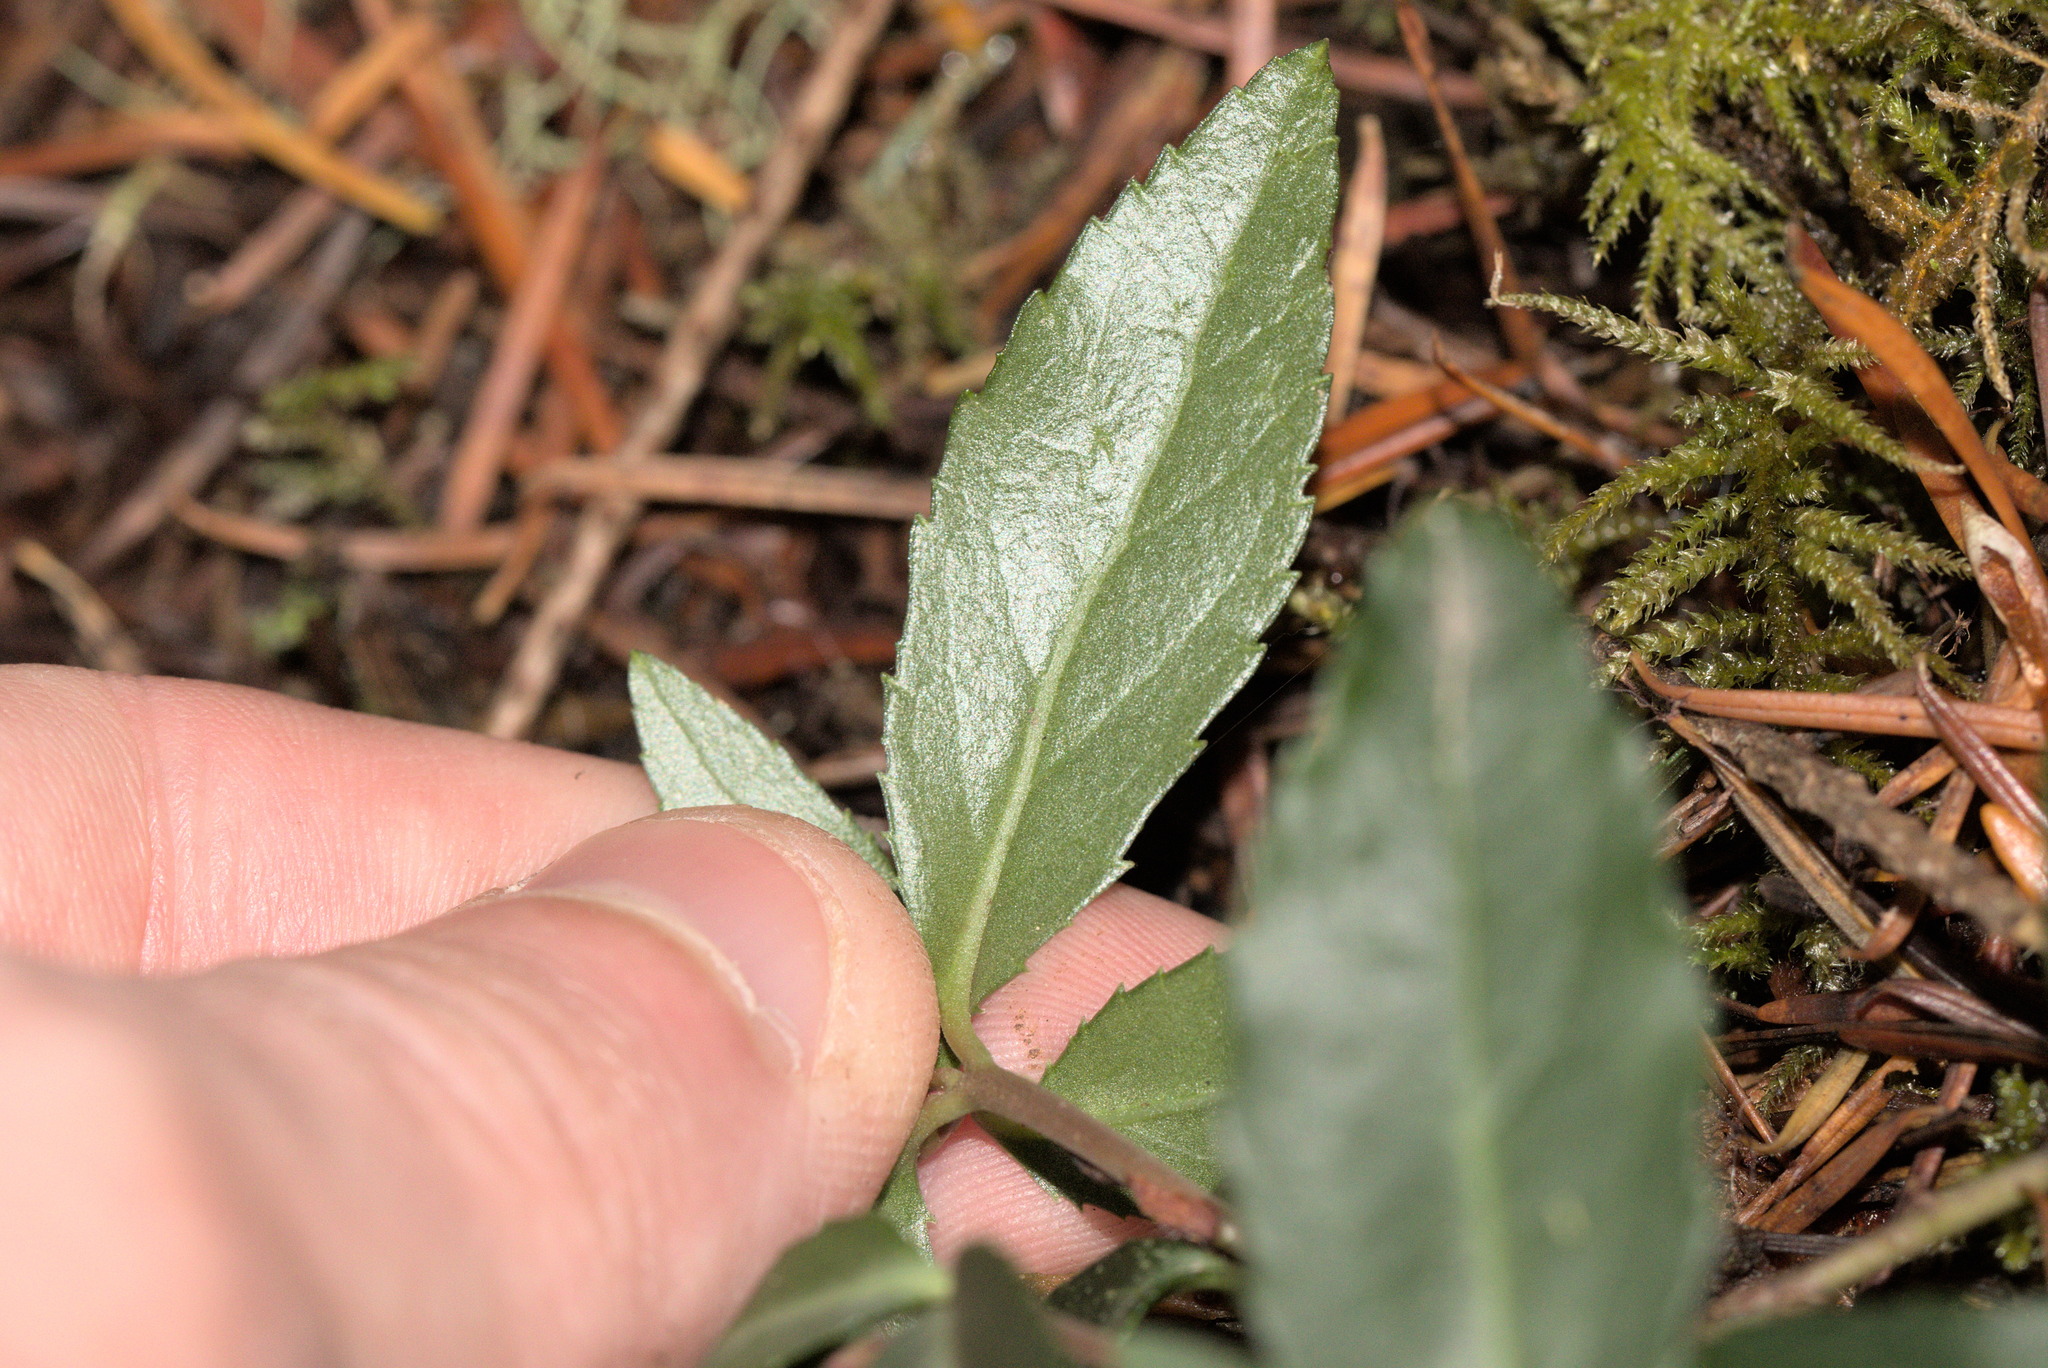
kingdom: Plantae
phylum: Tracheophyta
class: Magnoliopsida
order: Ericales
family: Ericaceae
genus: Chimaphila
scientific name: Chimaphila menziesii
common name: Menzies' pipsissewa
